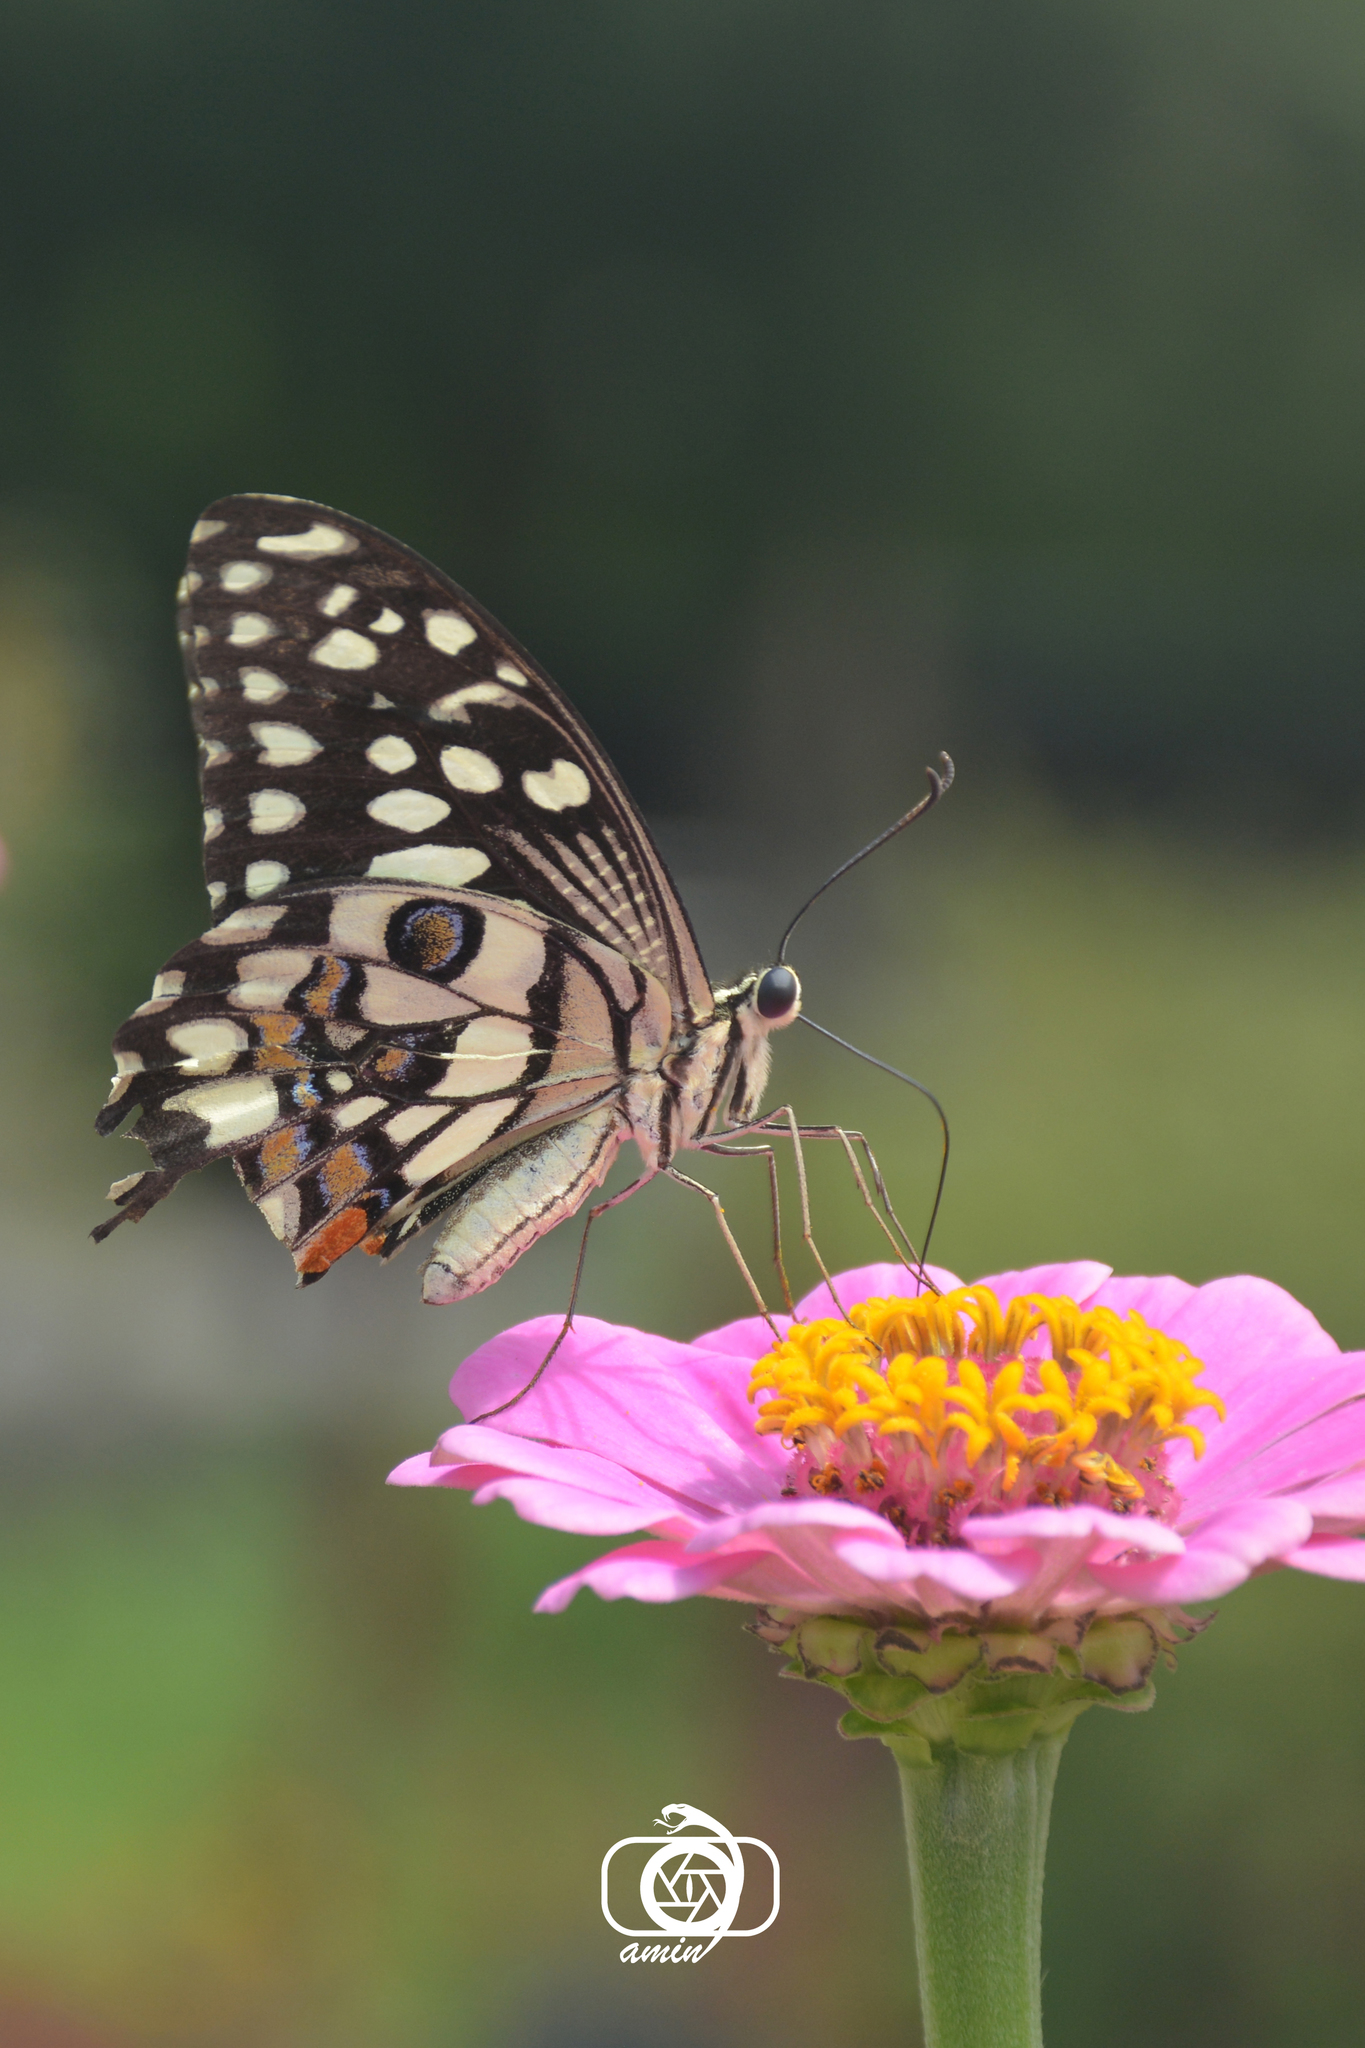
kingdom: Animalia
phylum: Arthropoda
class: Insecta
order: Lepidoptera
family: Papilionidae
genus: Papilio
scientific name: Papilio demoleus
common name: Lime butterfly
